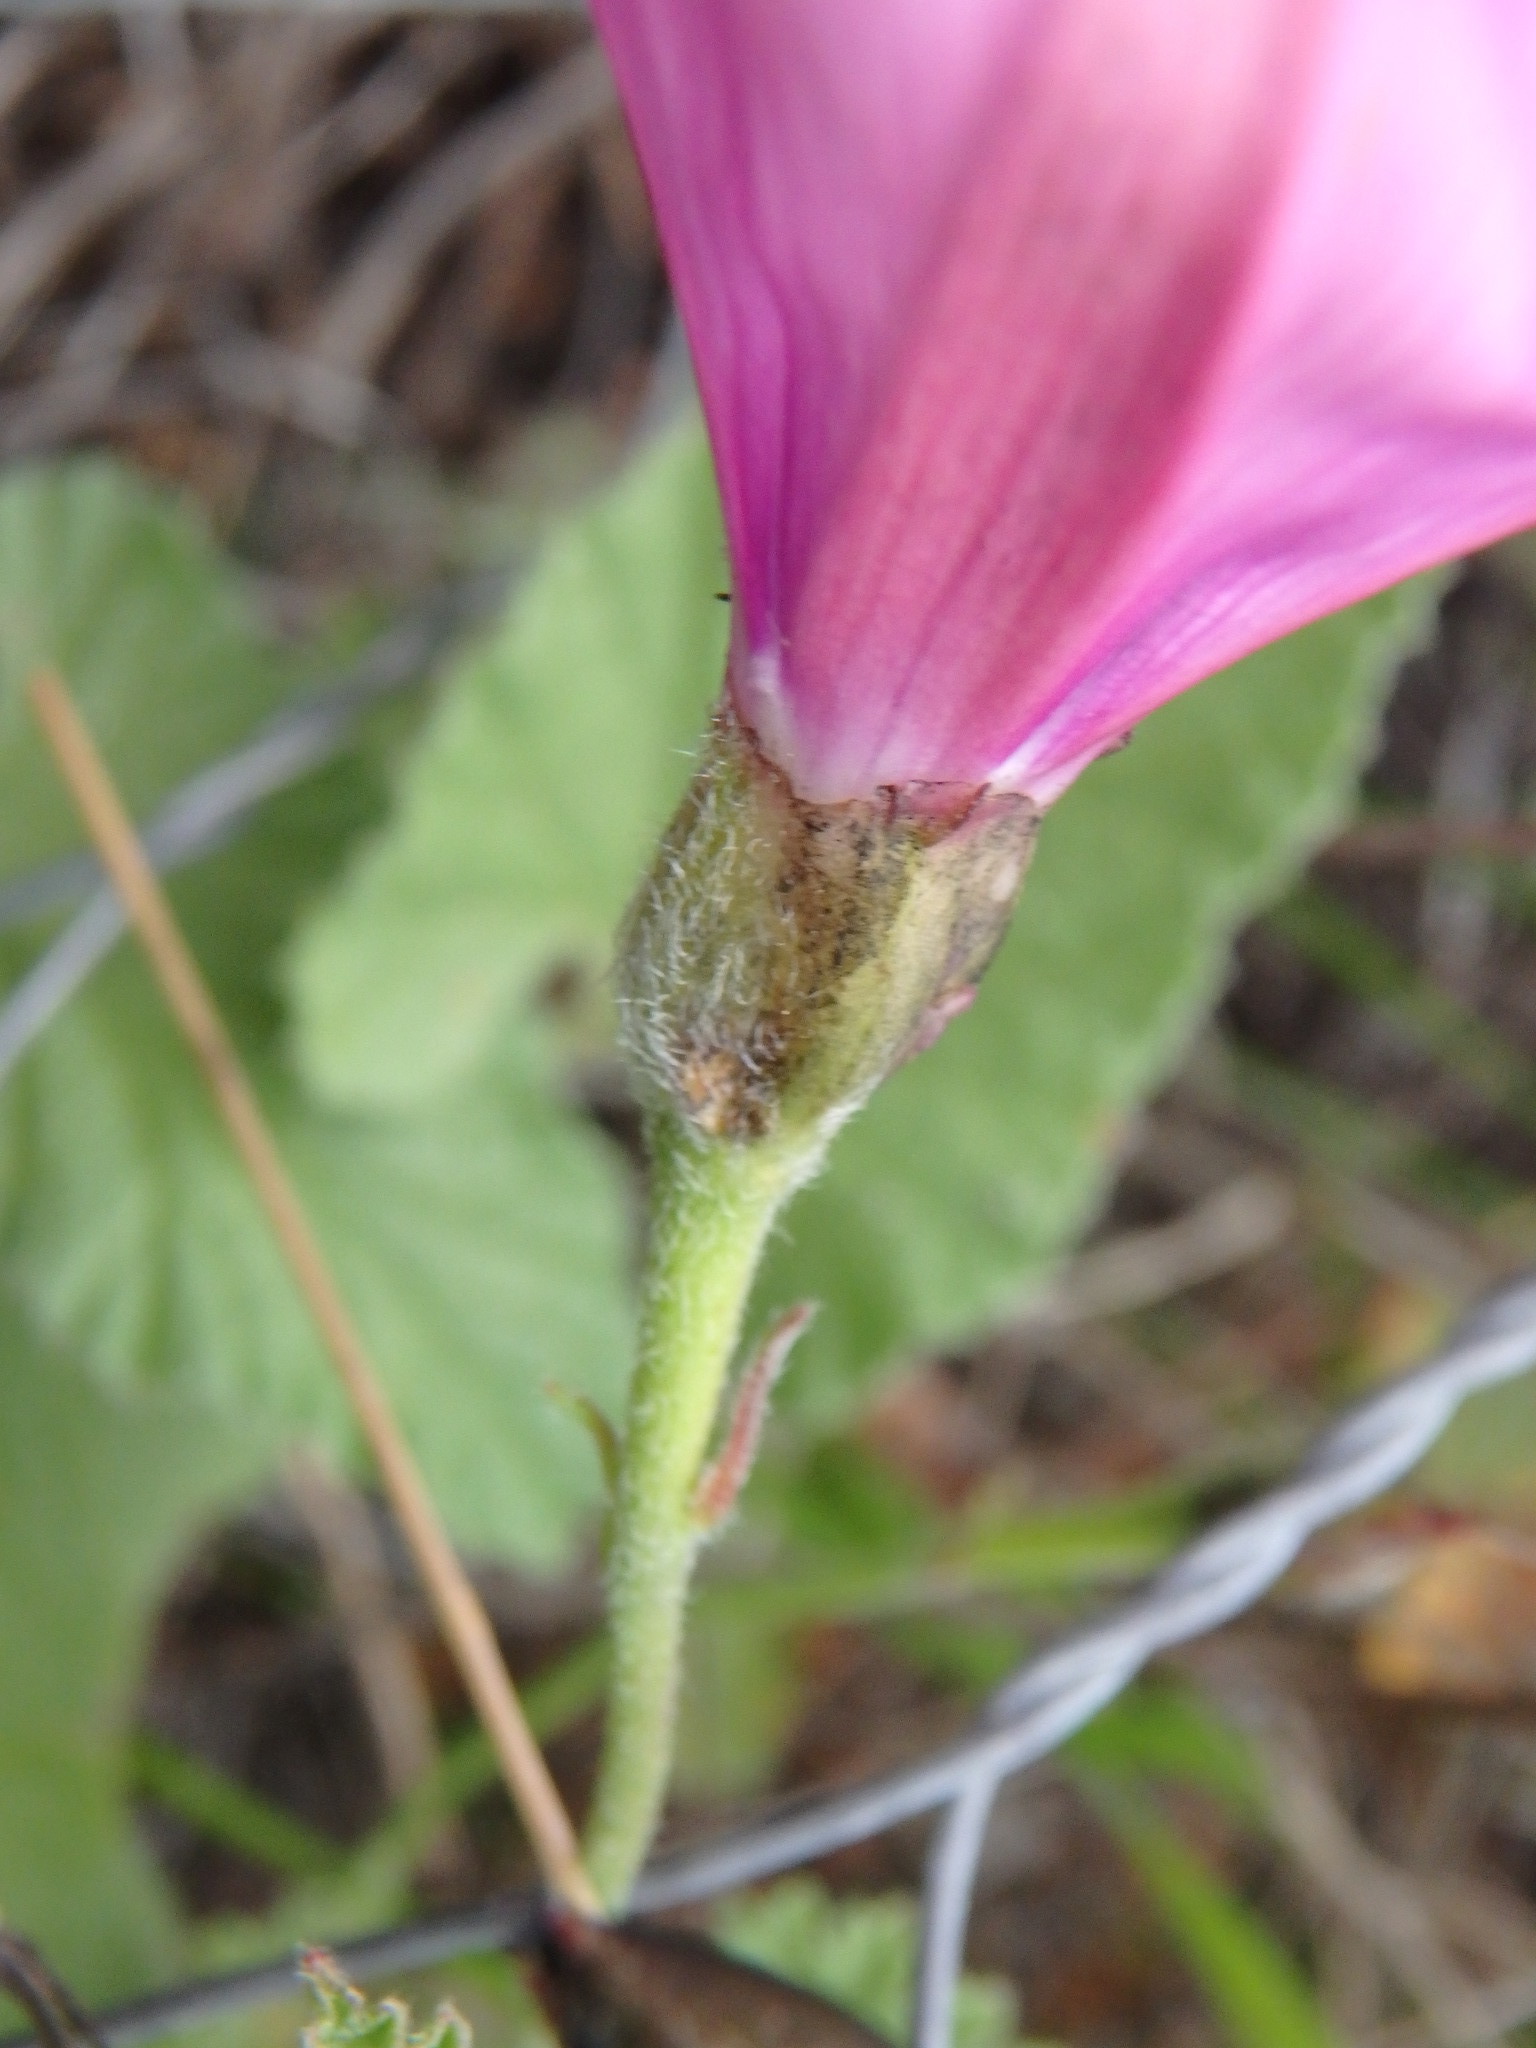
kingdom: Plantae
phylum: Tracheophyta
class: Magnoliopsida
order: Solanales
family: Convolvulaceae
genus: Convolvulus
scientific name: Convolvulus althaeoides
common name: Mallow bindweed
